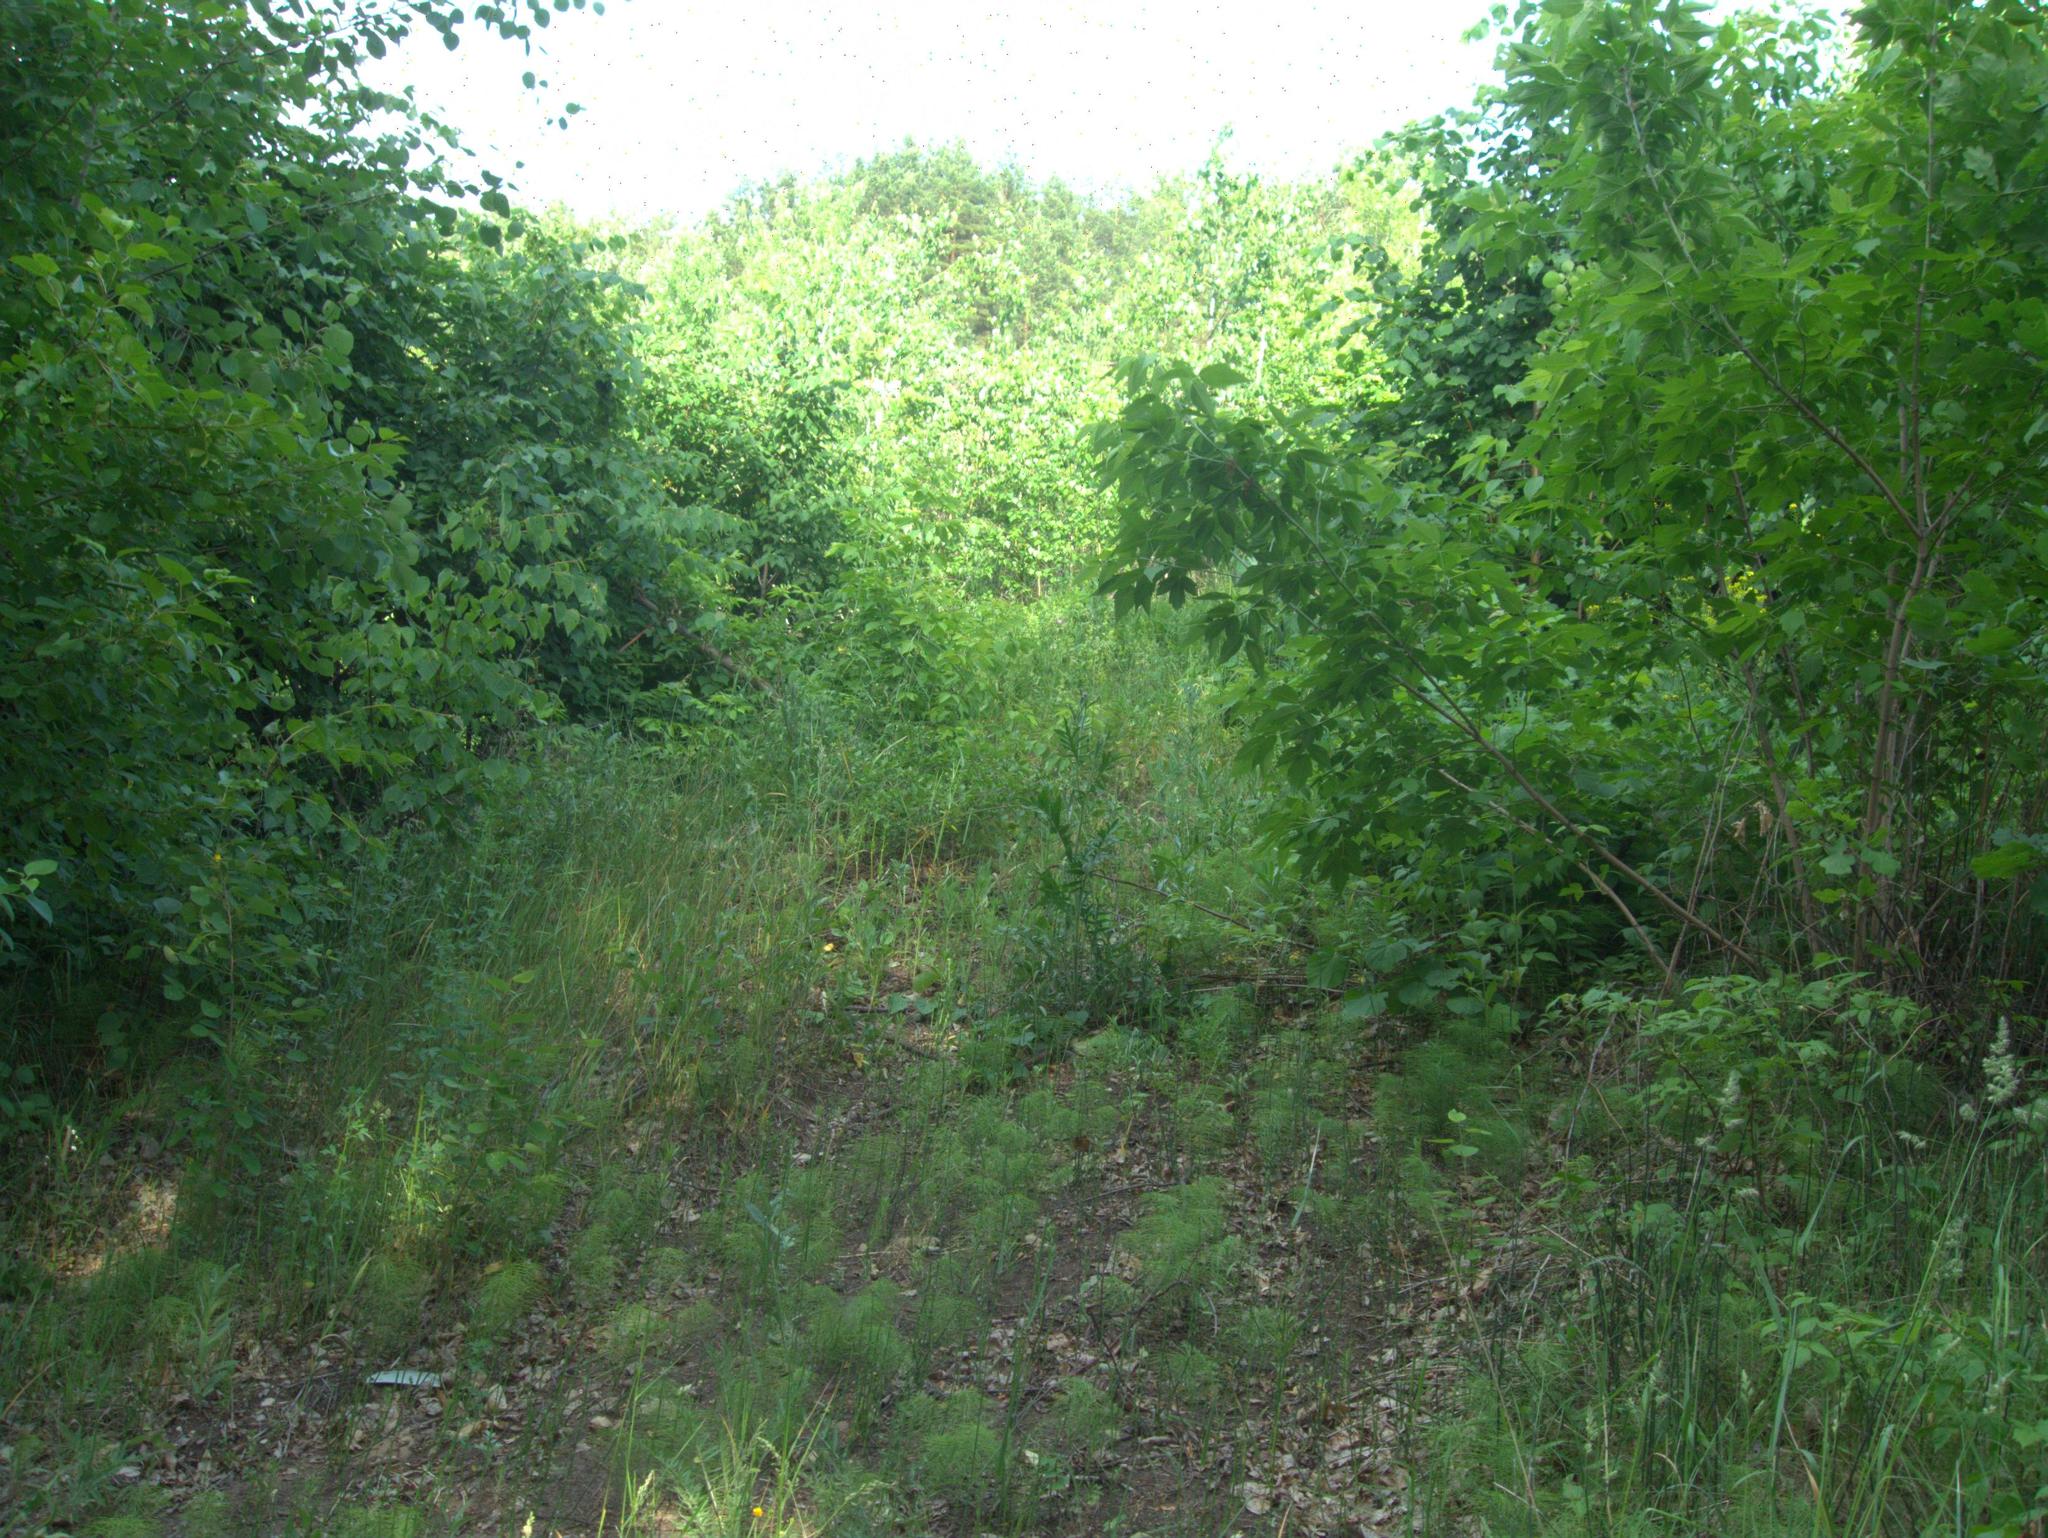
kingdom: Plantae
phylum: Tracheophyta
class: Magnoliopsida
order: Malpighiales
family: Salicaceae
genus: Populus
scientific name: Populus tremula
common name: European aspen
